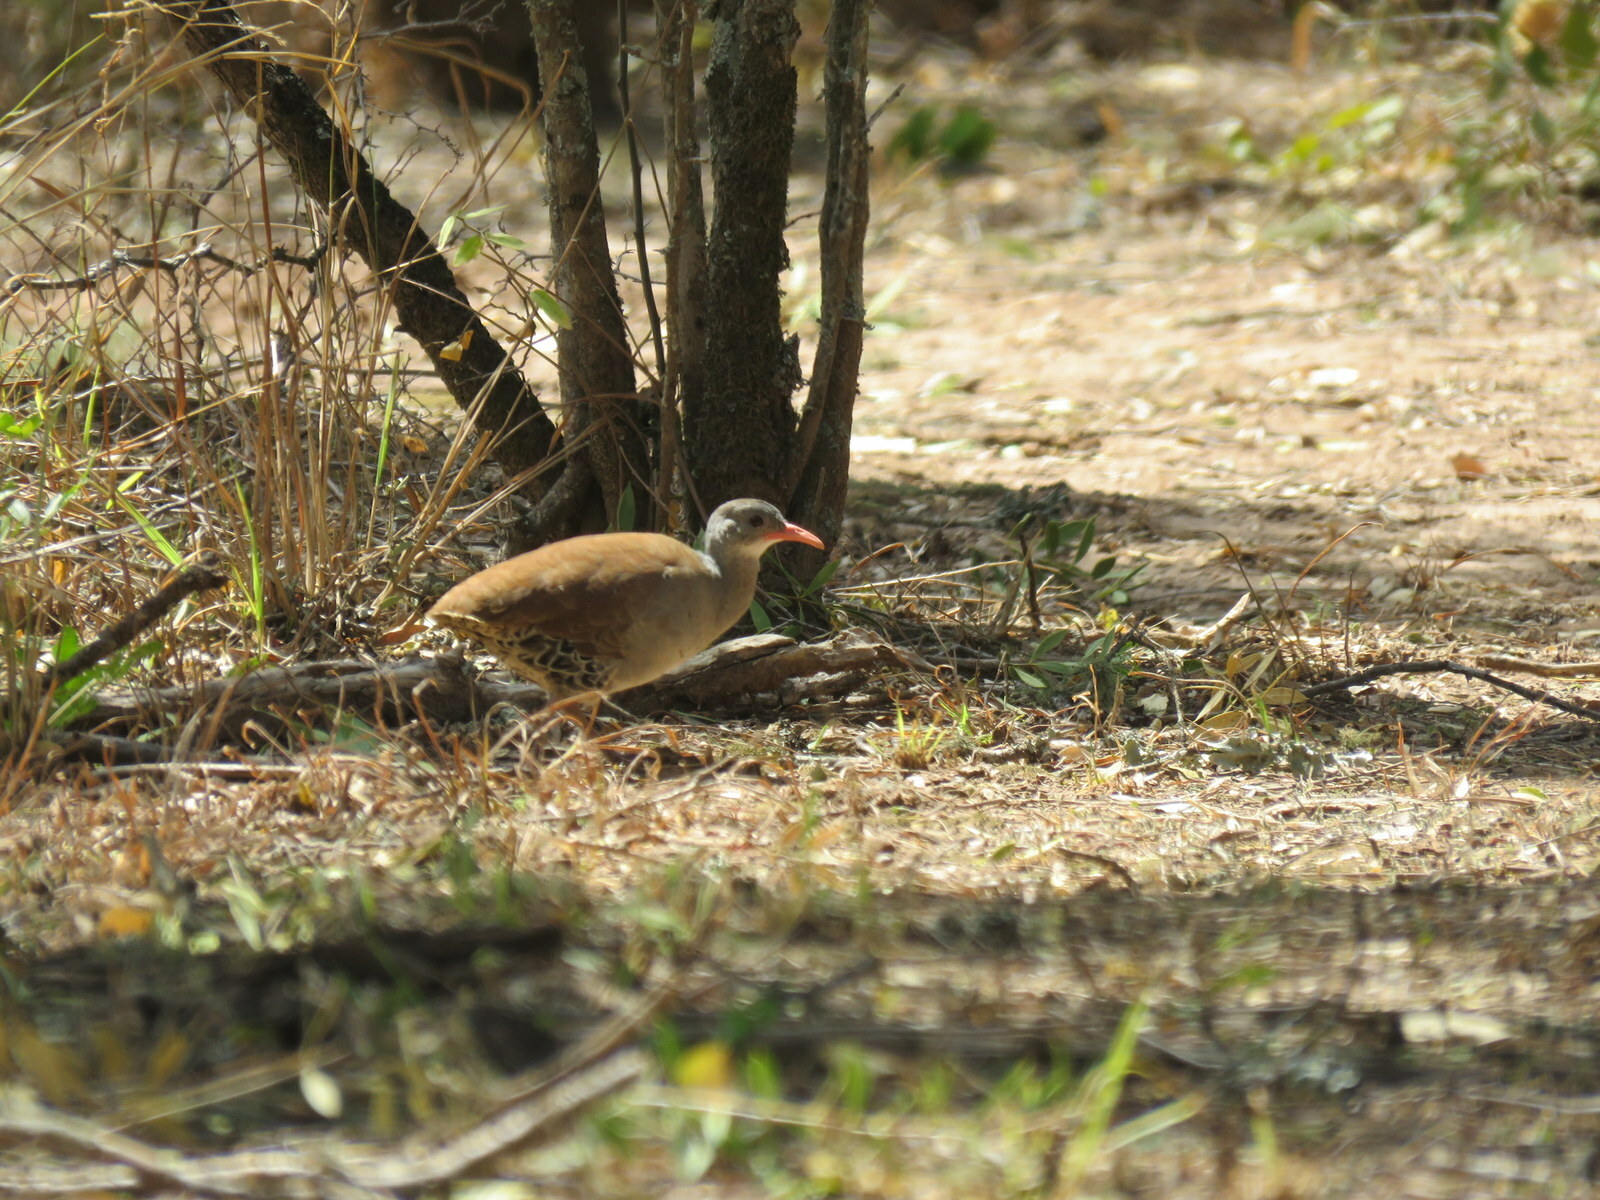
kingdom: Animalia
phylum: Chordata
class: Aves
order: Tinamiformes
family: Tinamidae
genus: Crypturellus
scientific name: Crypturellus tataupa
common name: Tataupa tinamou
